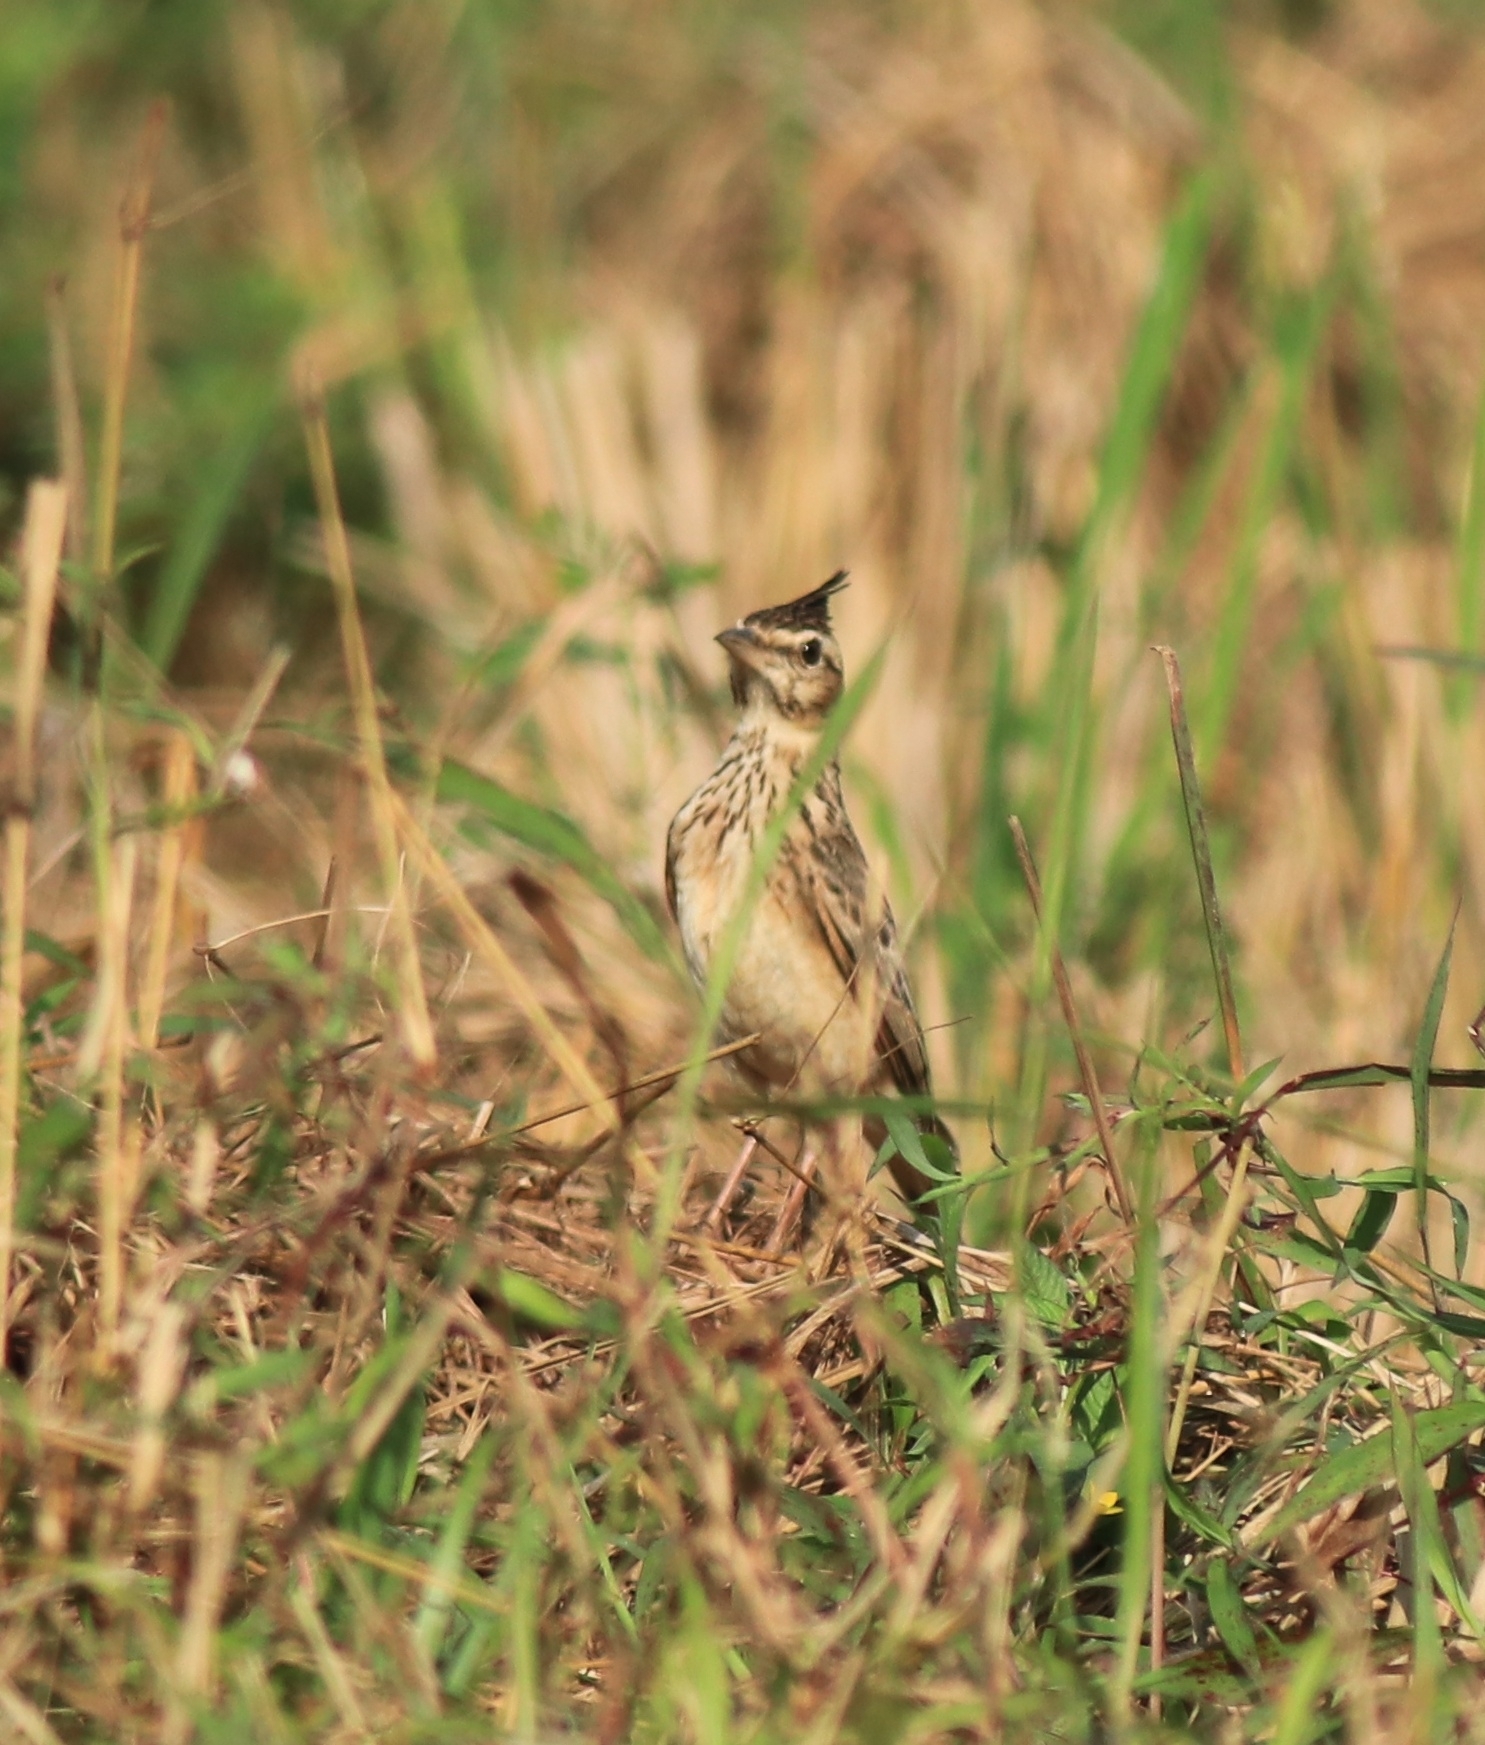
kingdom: Animalia
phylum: Chordata
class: Aves
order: Passeriformes
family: Alaudidae
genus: Galerida
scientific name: Galerida malabarica
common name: Malabar lark
